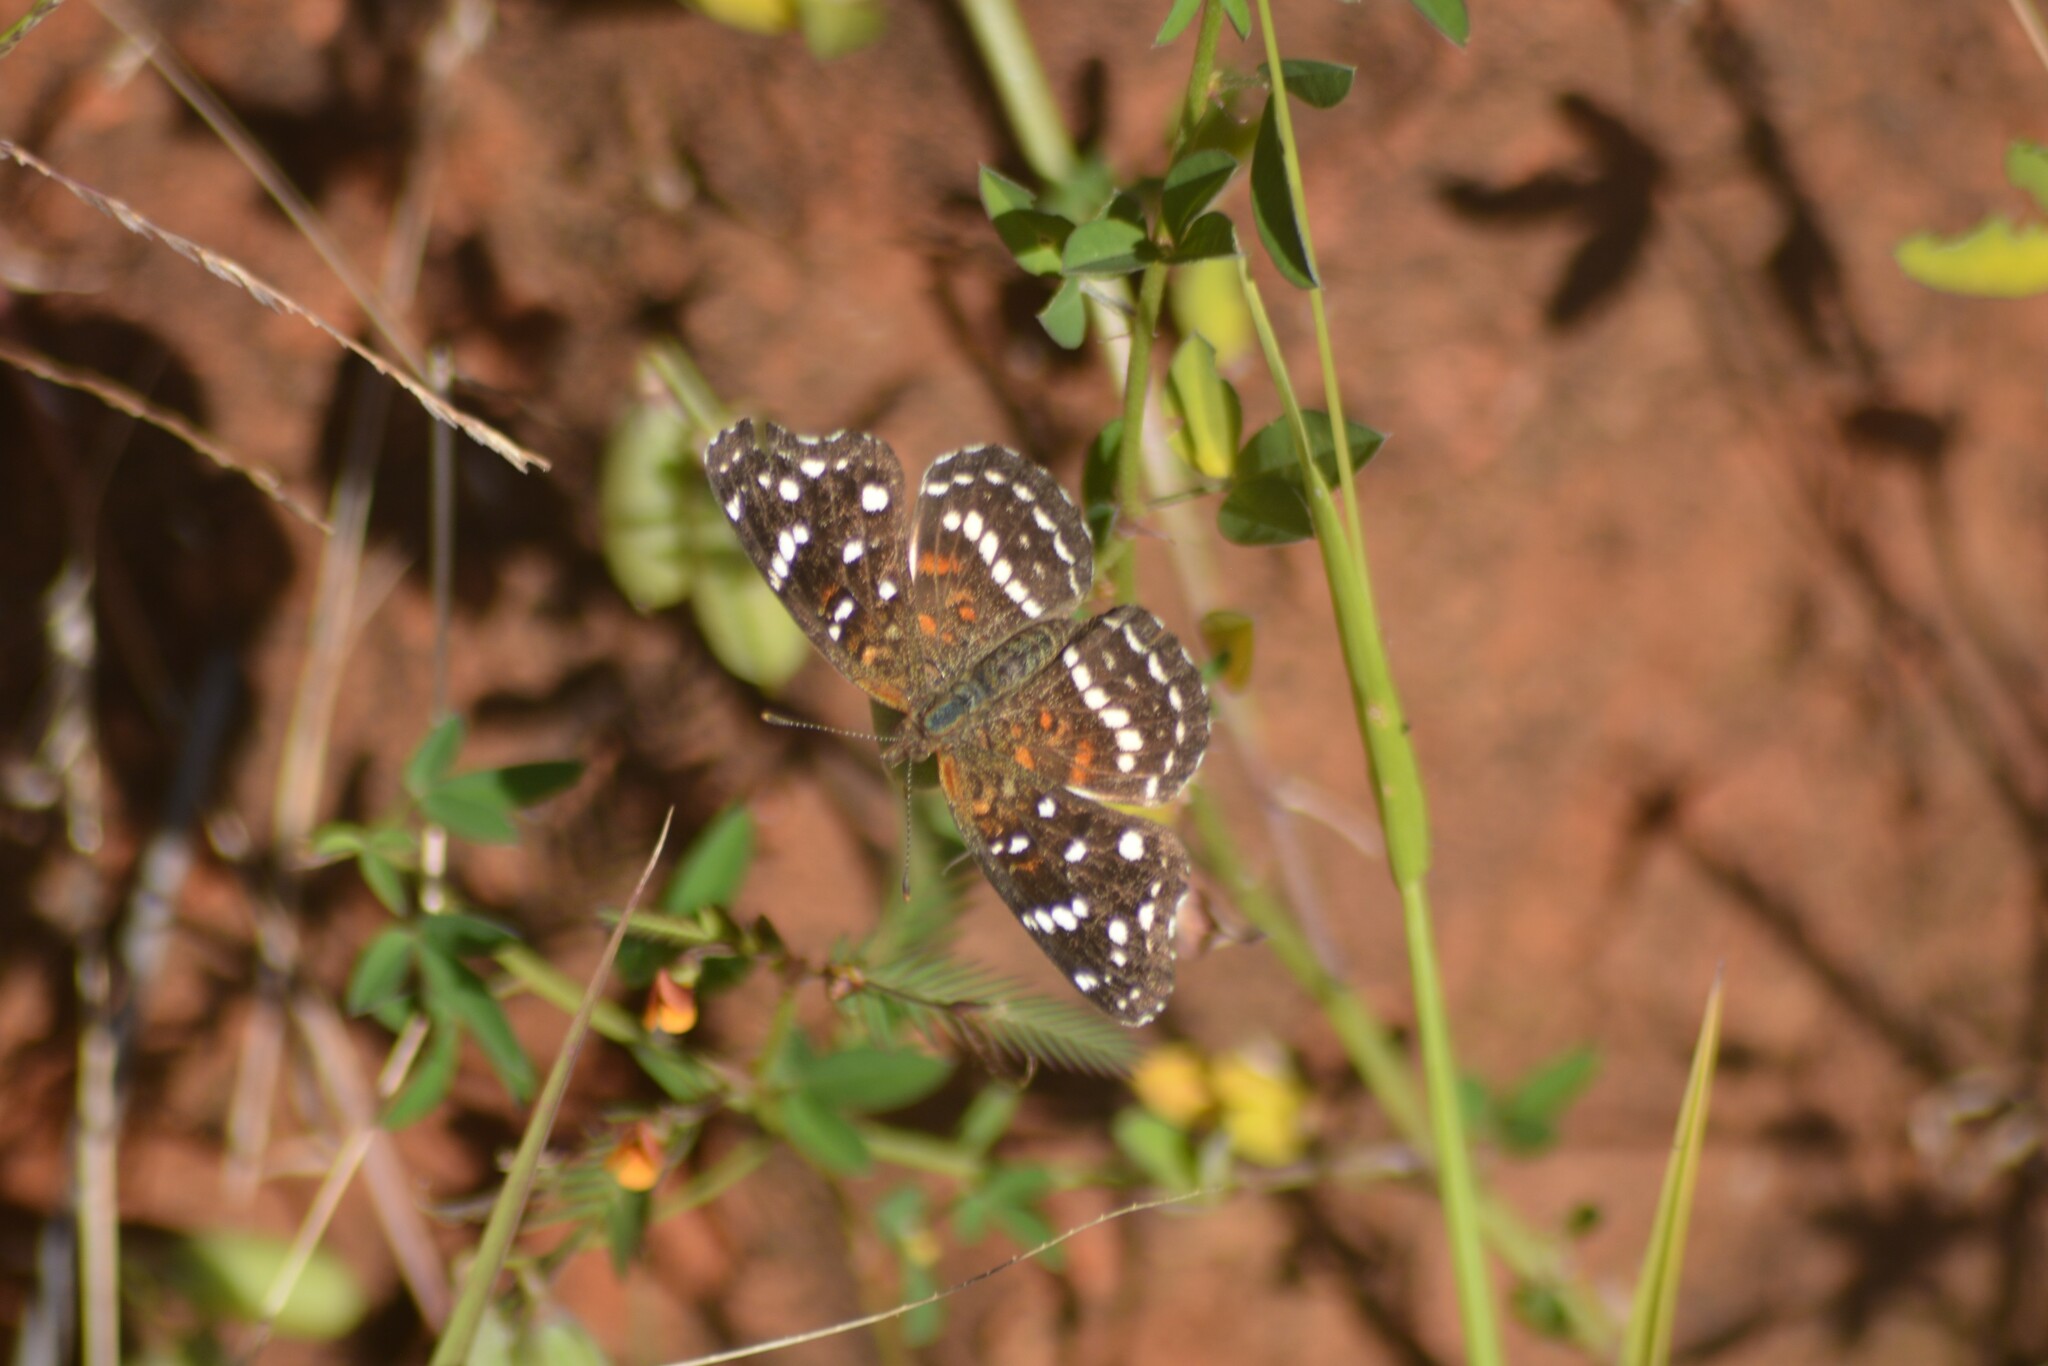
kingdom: Animalia
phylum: Arthropoda
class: Insecta
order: Lepidoptera
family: Nymphalidae
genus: Anthanassa
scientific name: Anthanassa texana
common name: Texan crescent
